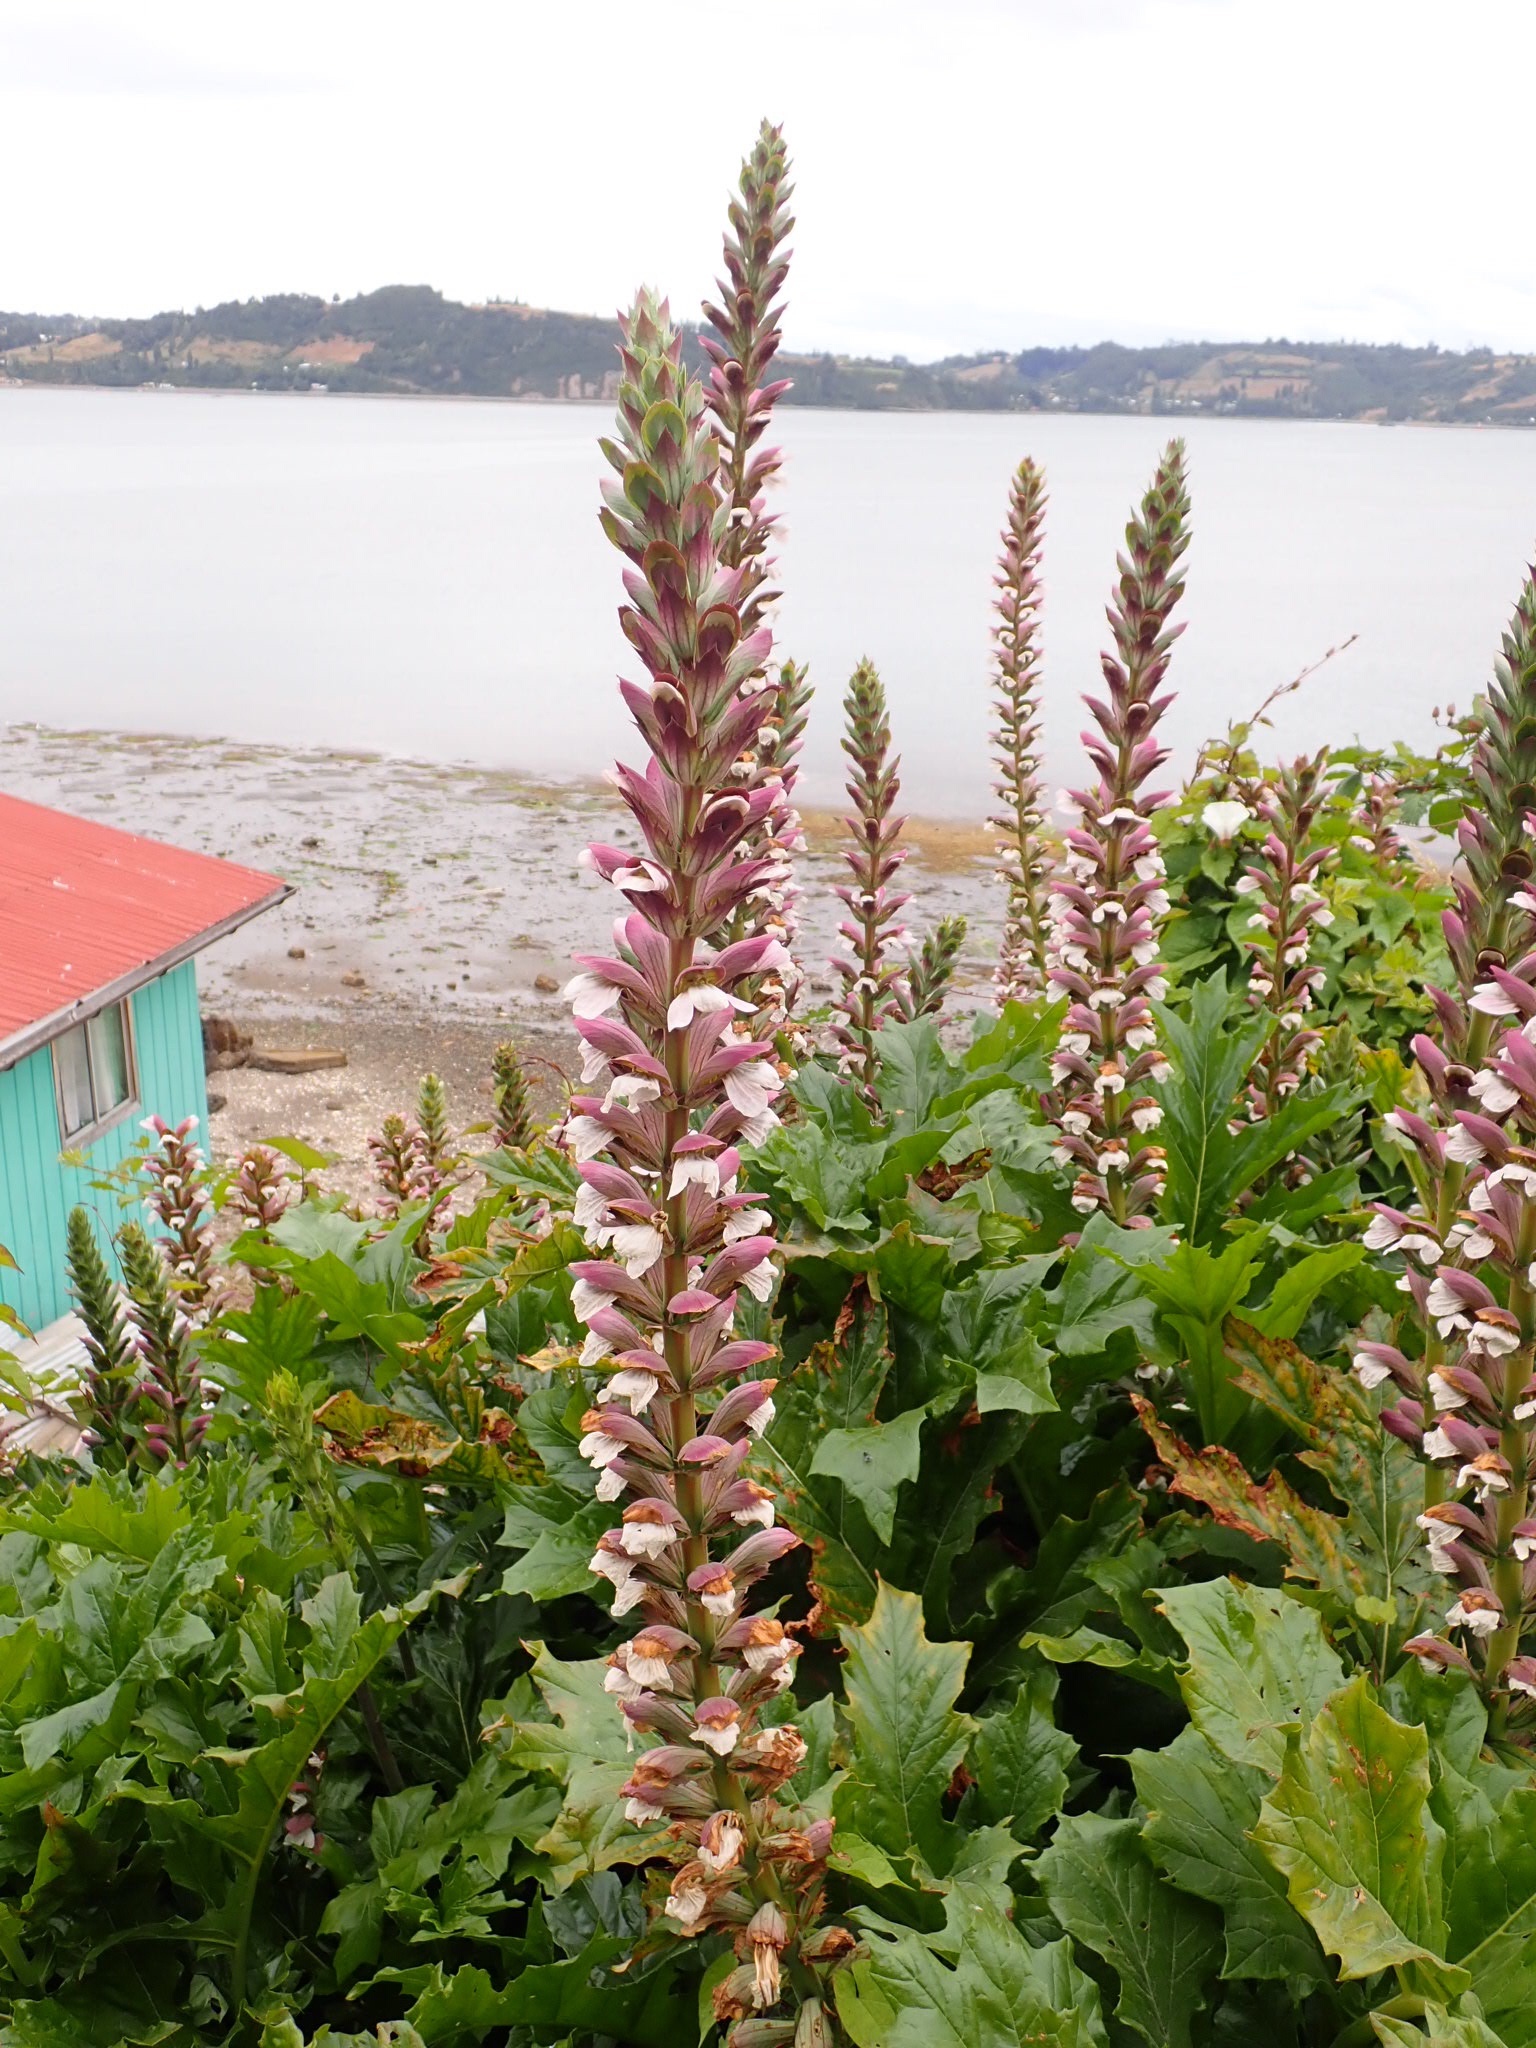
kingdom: Plantae
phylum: Tracheophyta
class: Magnoliopsida
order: Lamiales
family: Acanthaceae
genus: Acanthus
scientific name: Acanthus mollis
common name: Bear's-breech
